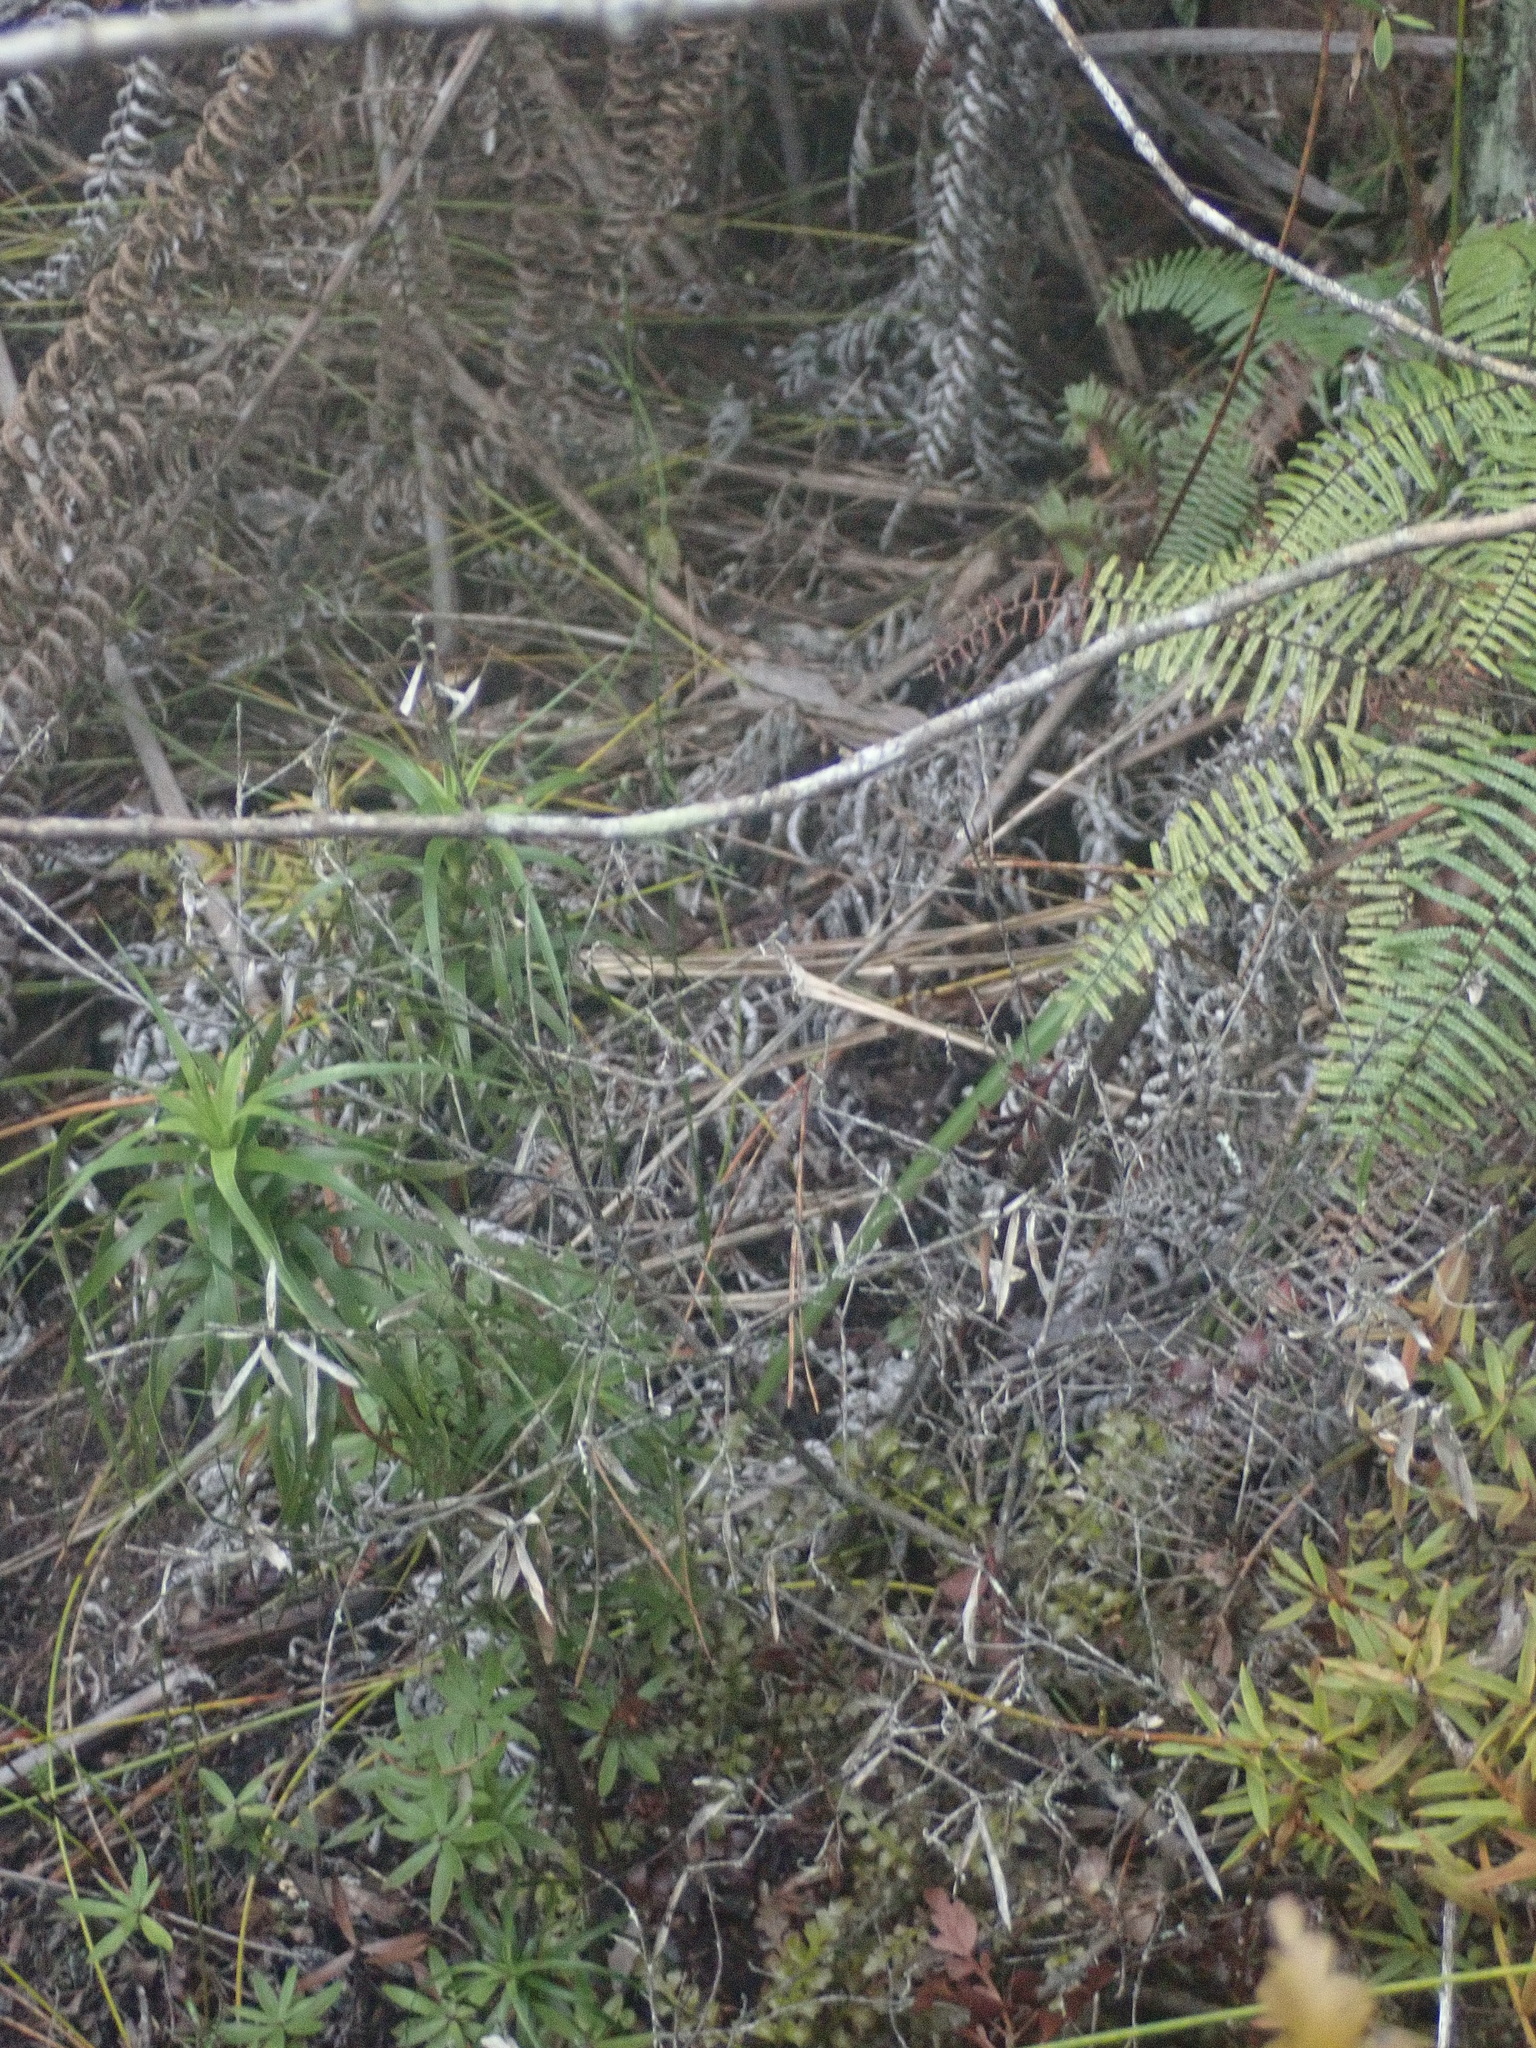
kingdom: Plantae
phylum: Tracheophyta
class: Magnoliopsida
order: Ericales
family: Ericaceae
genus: Dracophyllum
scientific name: Dracophyllum sinclairii
